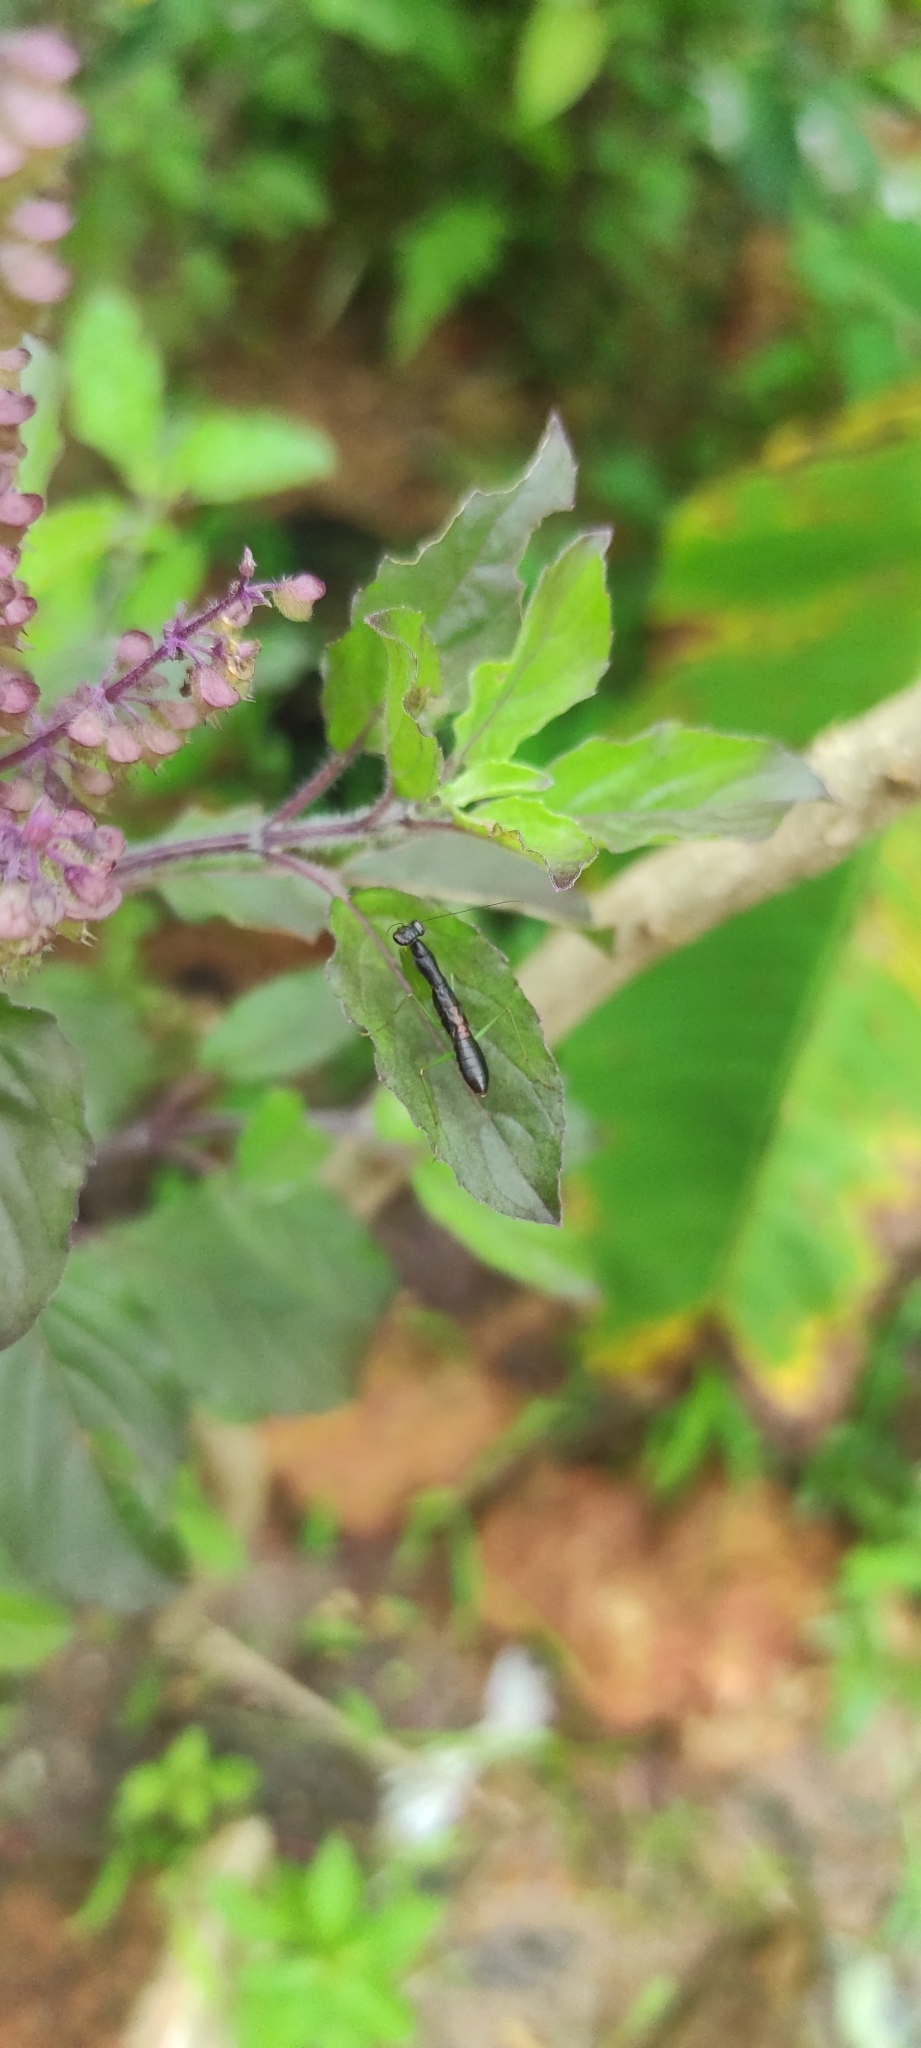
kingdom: Animalia
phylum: Arthropoda
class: Insecta
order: Mantodea
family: Hymenopodidae
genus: Odontomantis
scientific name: Odontomantis planiceps
